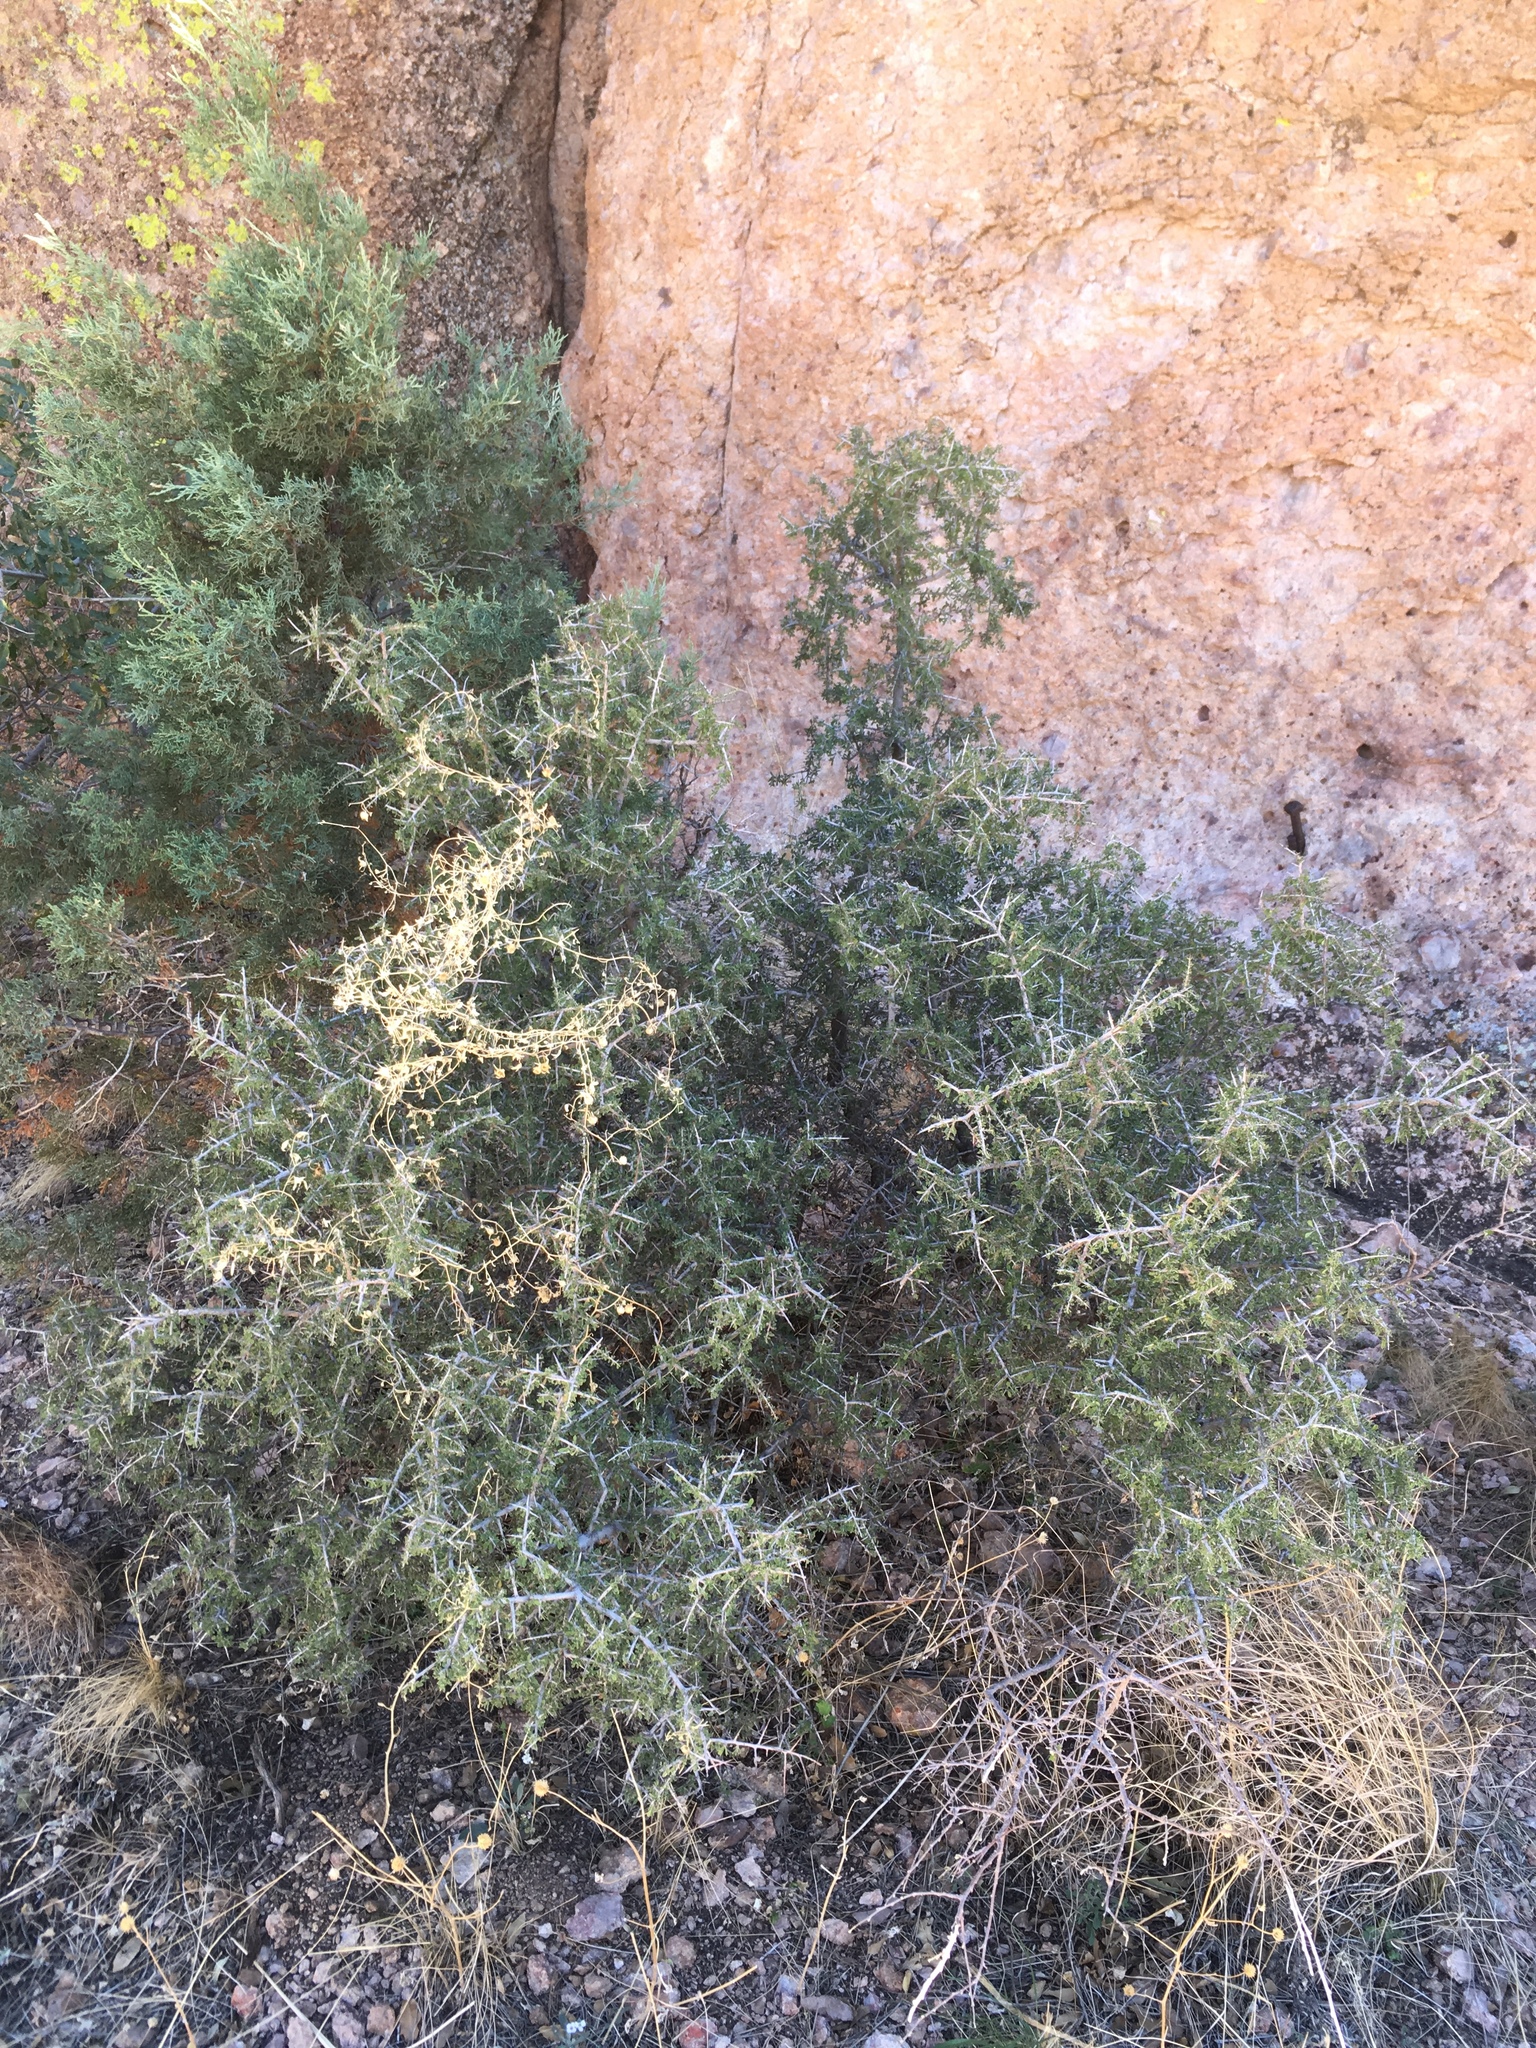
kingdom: Plantae
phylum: Tracheophyta
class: Magnoliopsida
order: Rosales
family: Rhamnaceae
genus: Condalia
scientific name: Condalia warnockii
